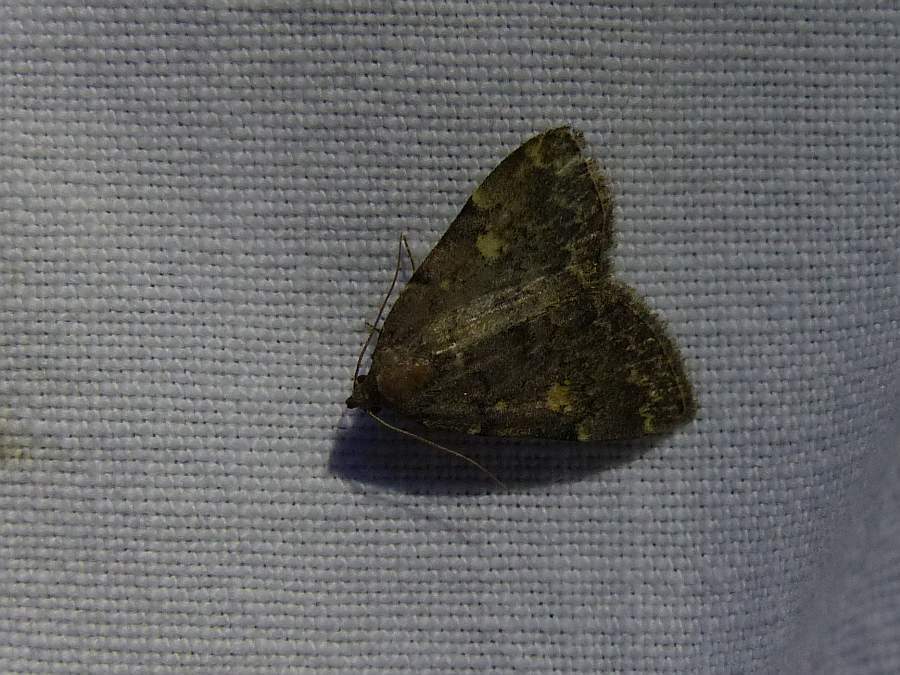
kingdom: Animalia
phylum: Arthropoda
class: Insecta
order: Lepidoptera
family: Erebidae
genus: Idia
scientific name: Idia aemula
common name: Common idia moth
